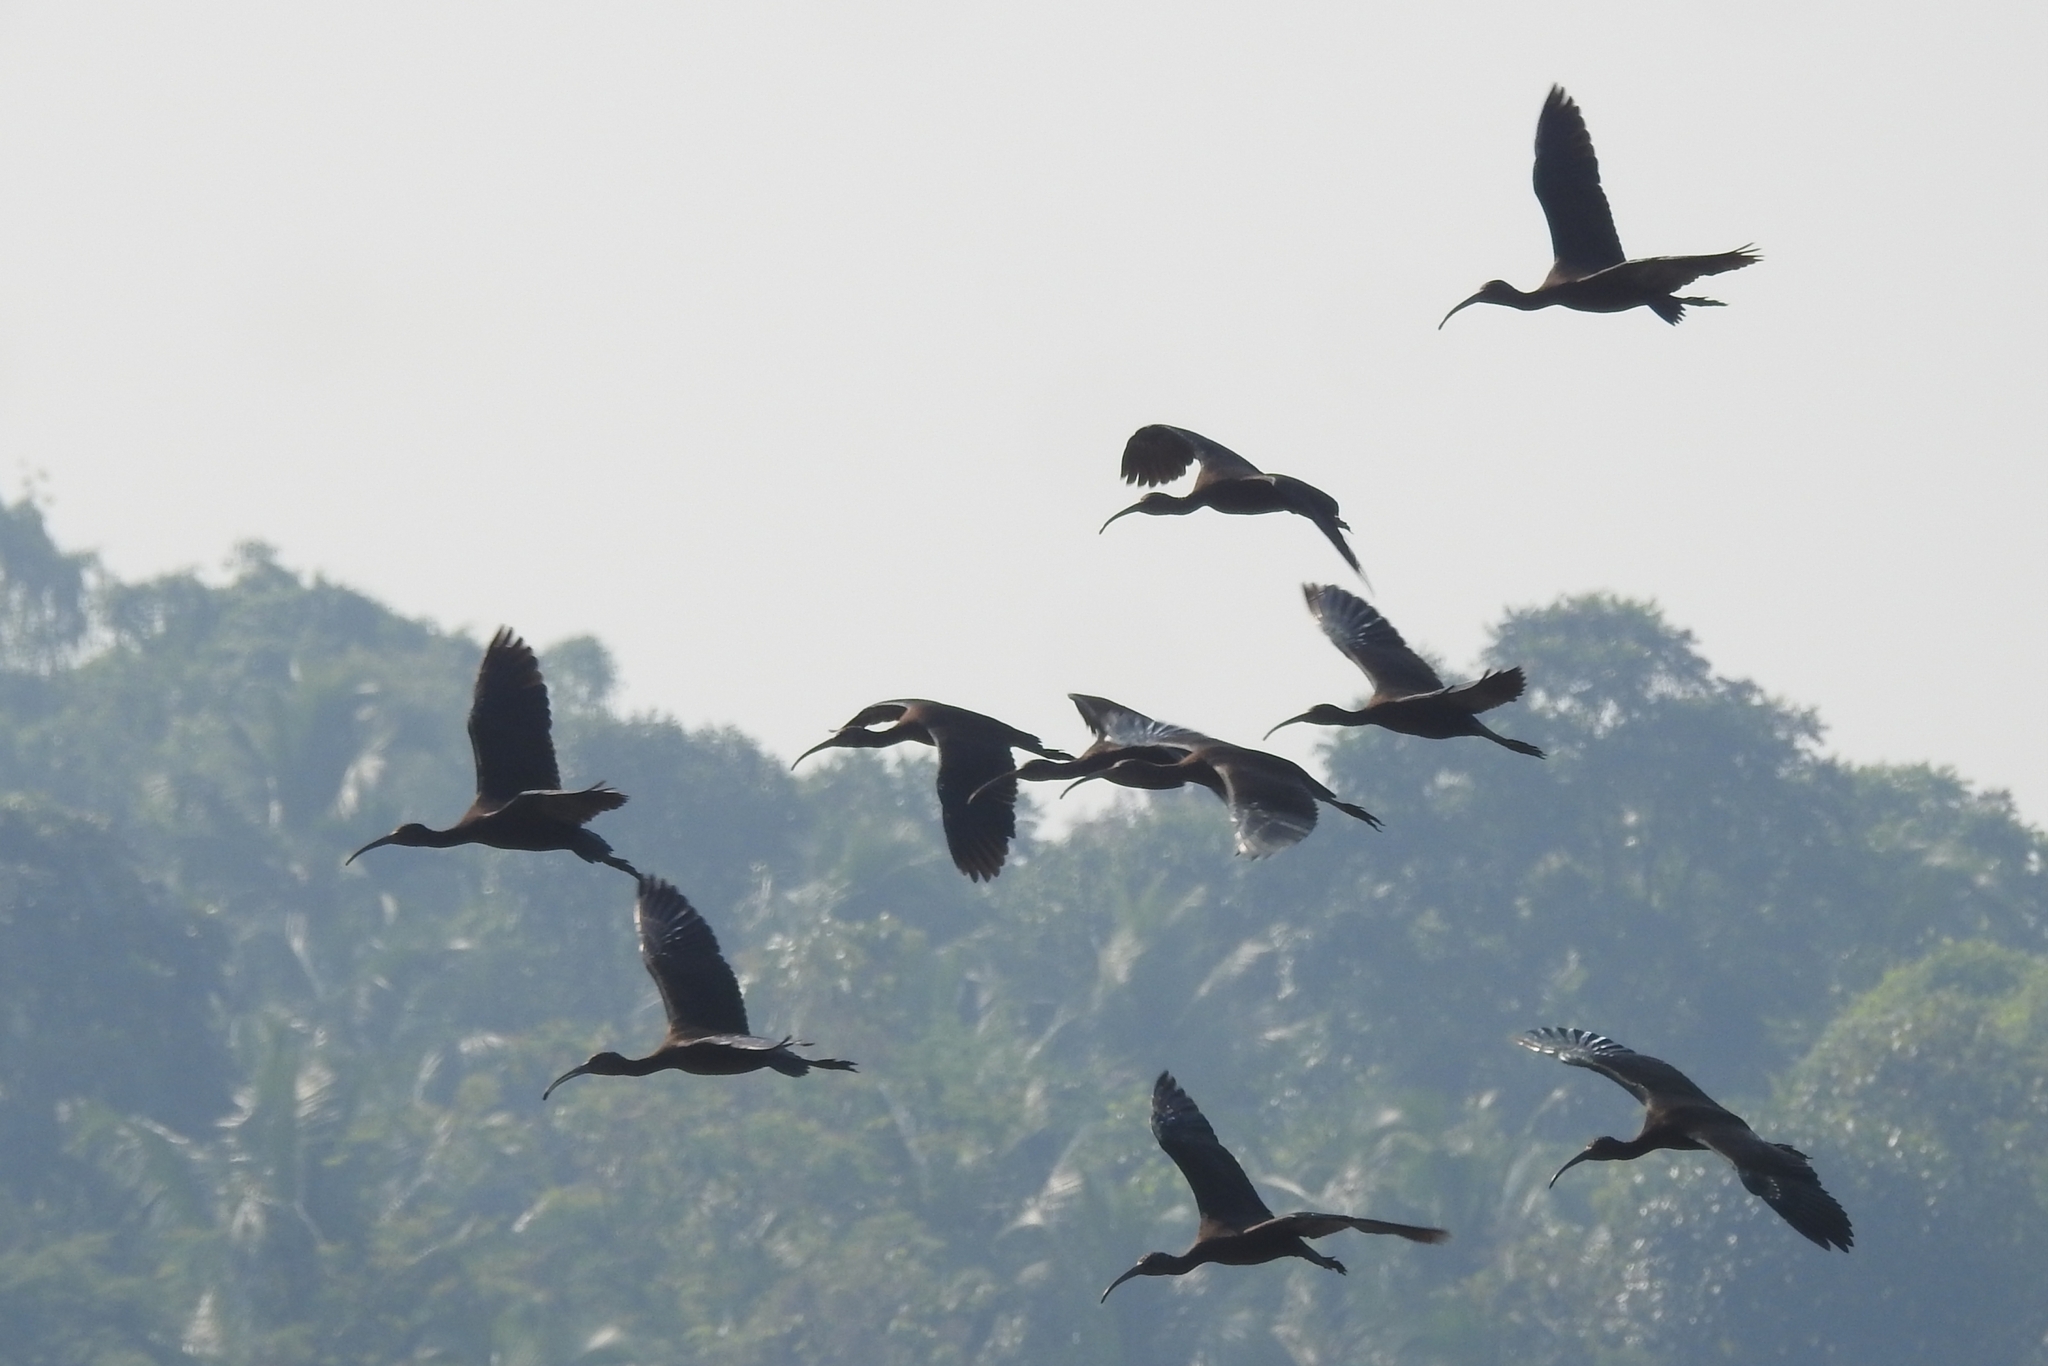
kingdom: Animalia
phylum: Chordata
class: Aves
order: Pelecaniformes
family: Threskiornithidae
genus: Plegadis
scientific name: Plegadis falcinellus
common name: Glossy ibis
